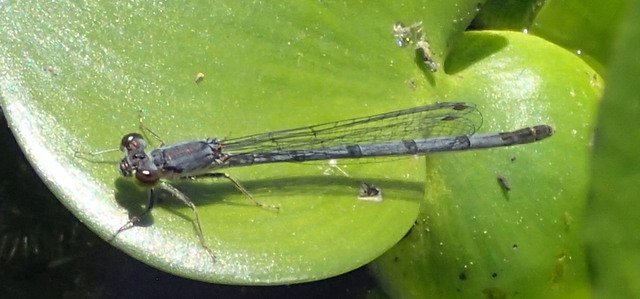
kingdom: Animalia
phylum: Arthropoda
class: Insecta
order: Odonata
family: Coenagrionidae
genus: Ischnura
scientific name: Ischnura posita
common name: Fragile forktail
